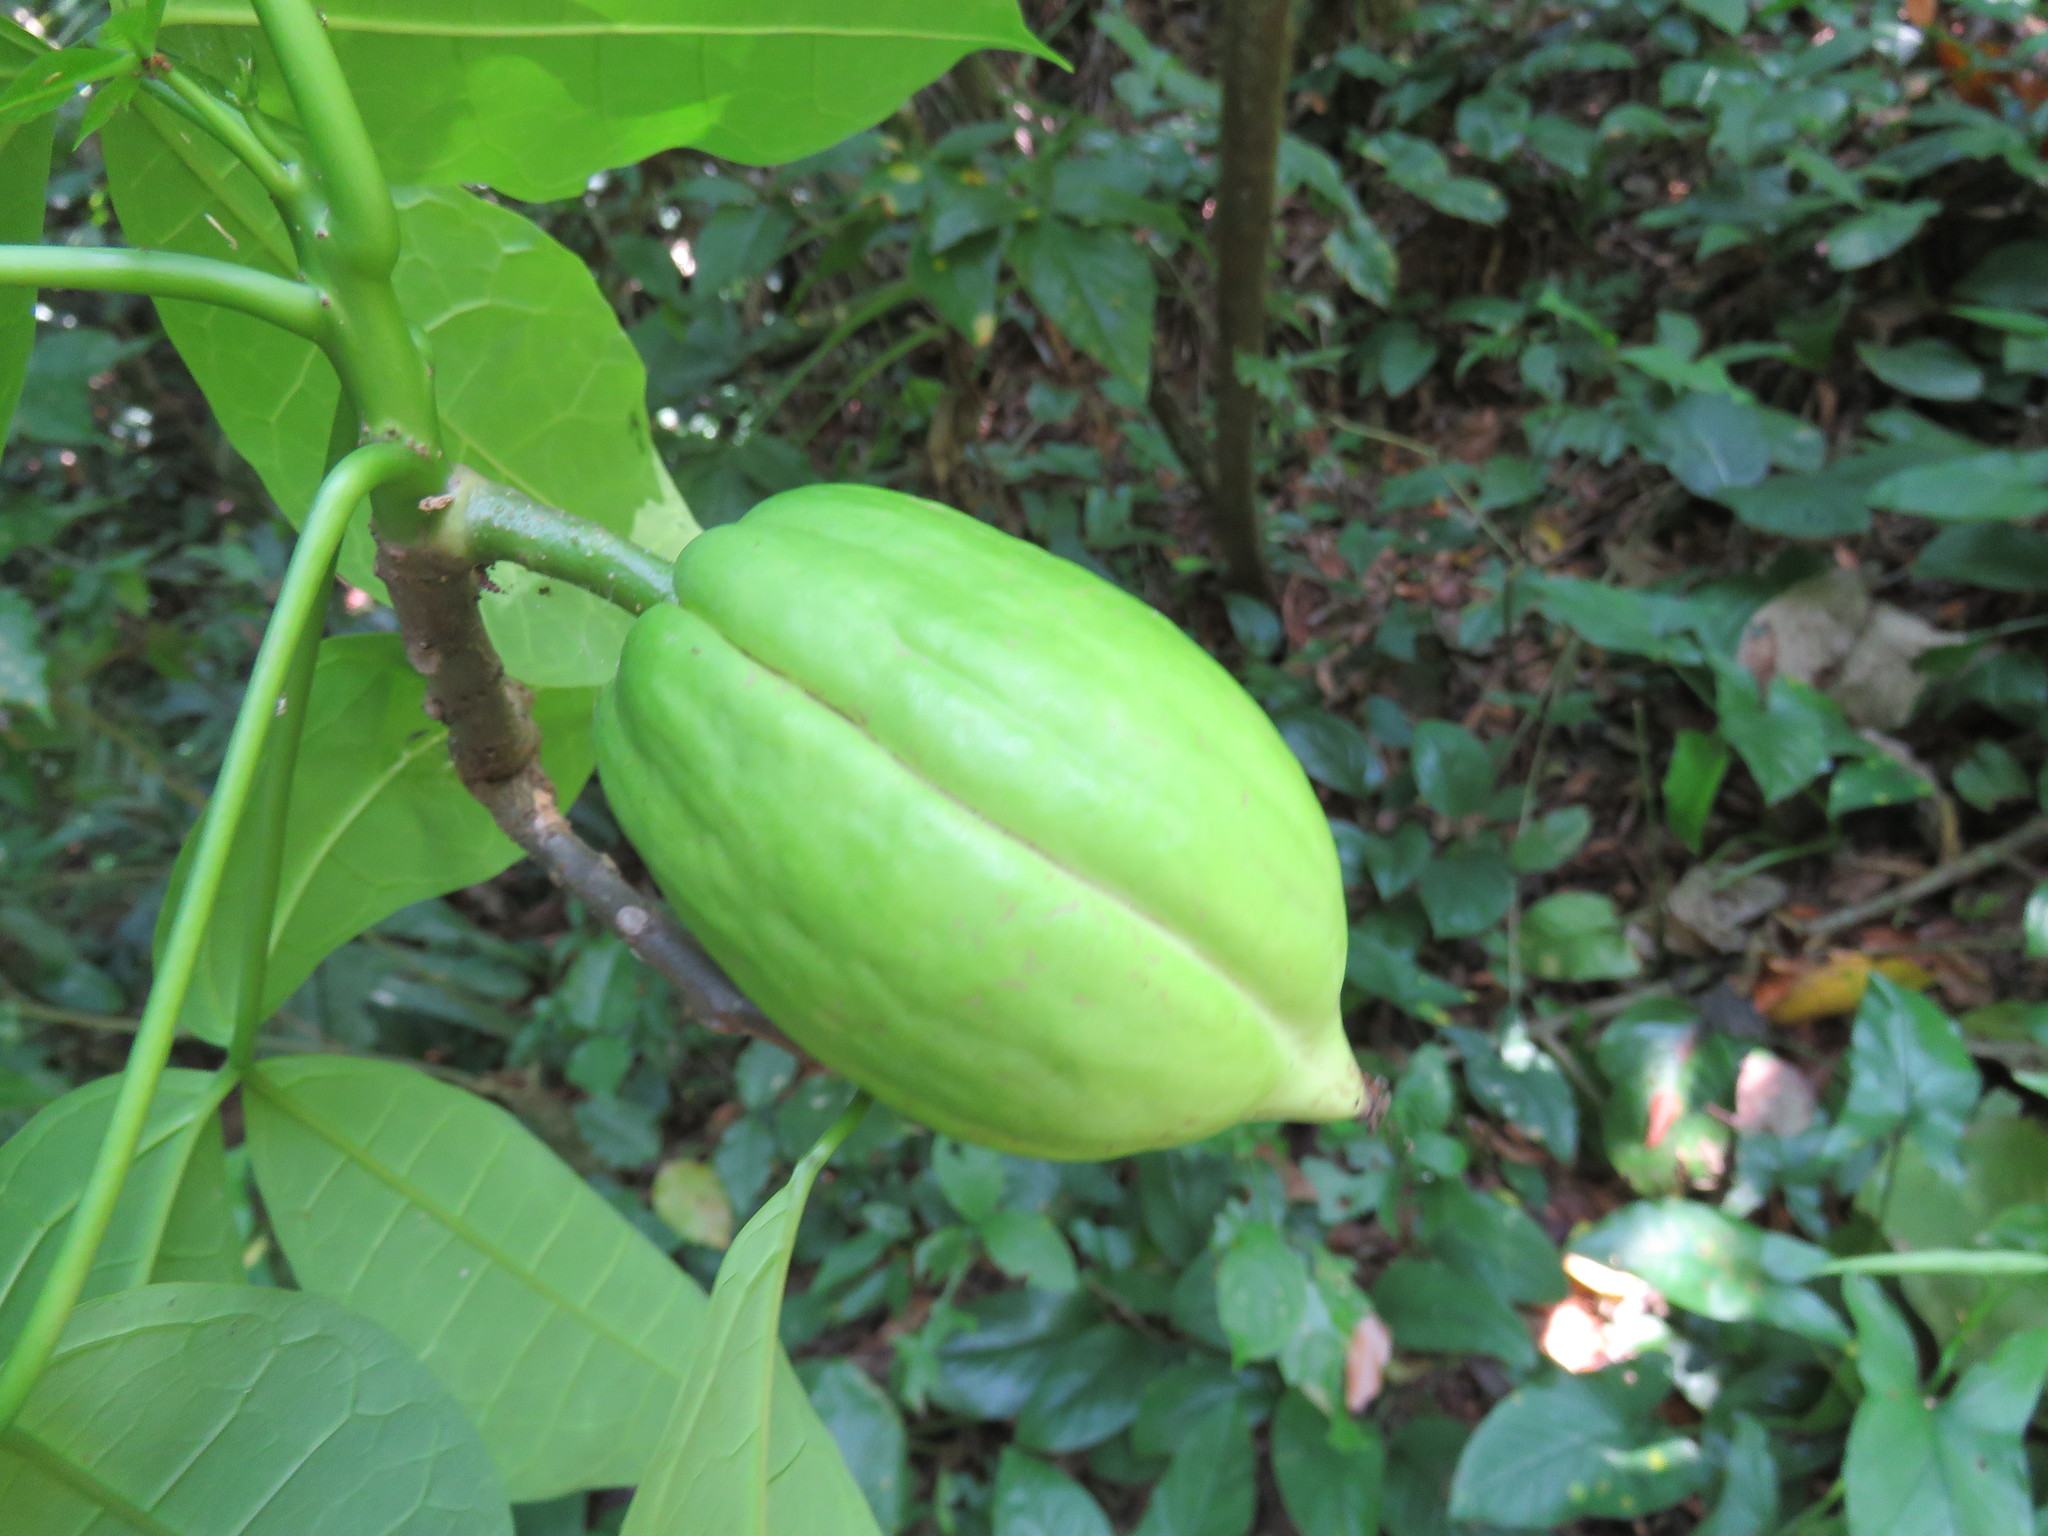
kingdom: Plantae
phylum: Tracheophyta
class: Magnoliopsida
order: Brassicales
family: Caricaceae
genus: Jacaratia
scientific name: Jacaratia dolichaula
